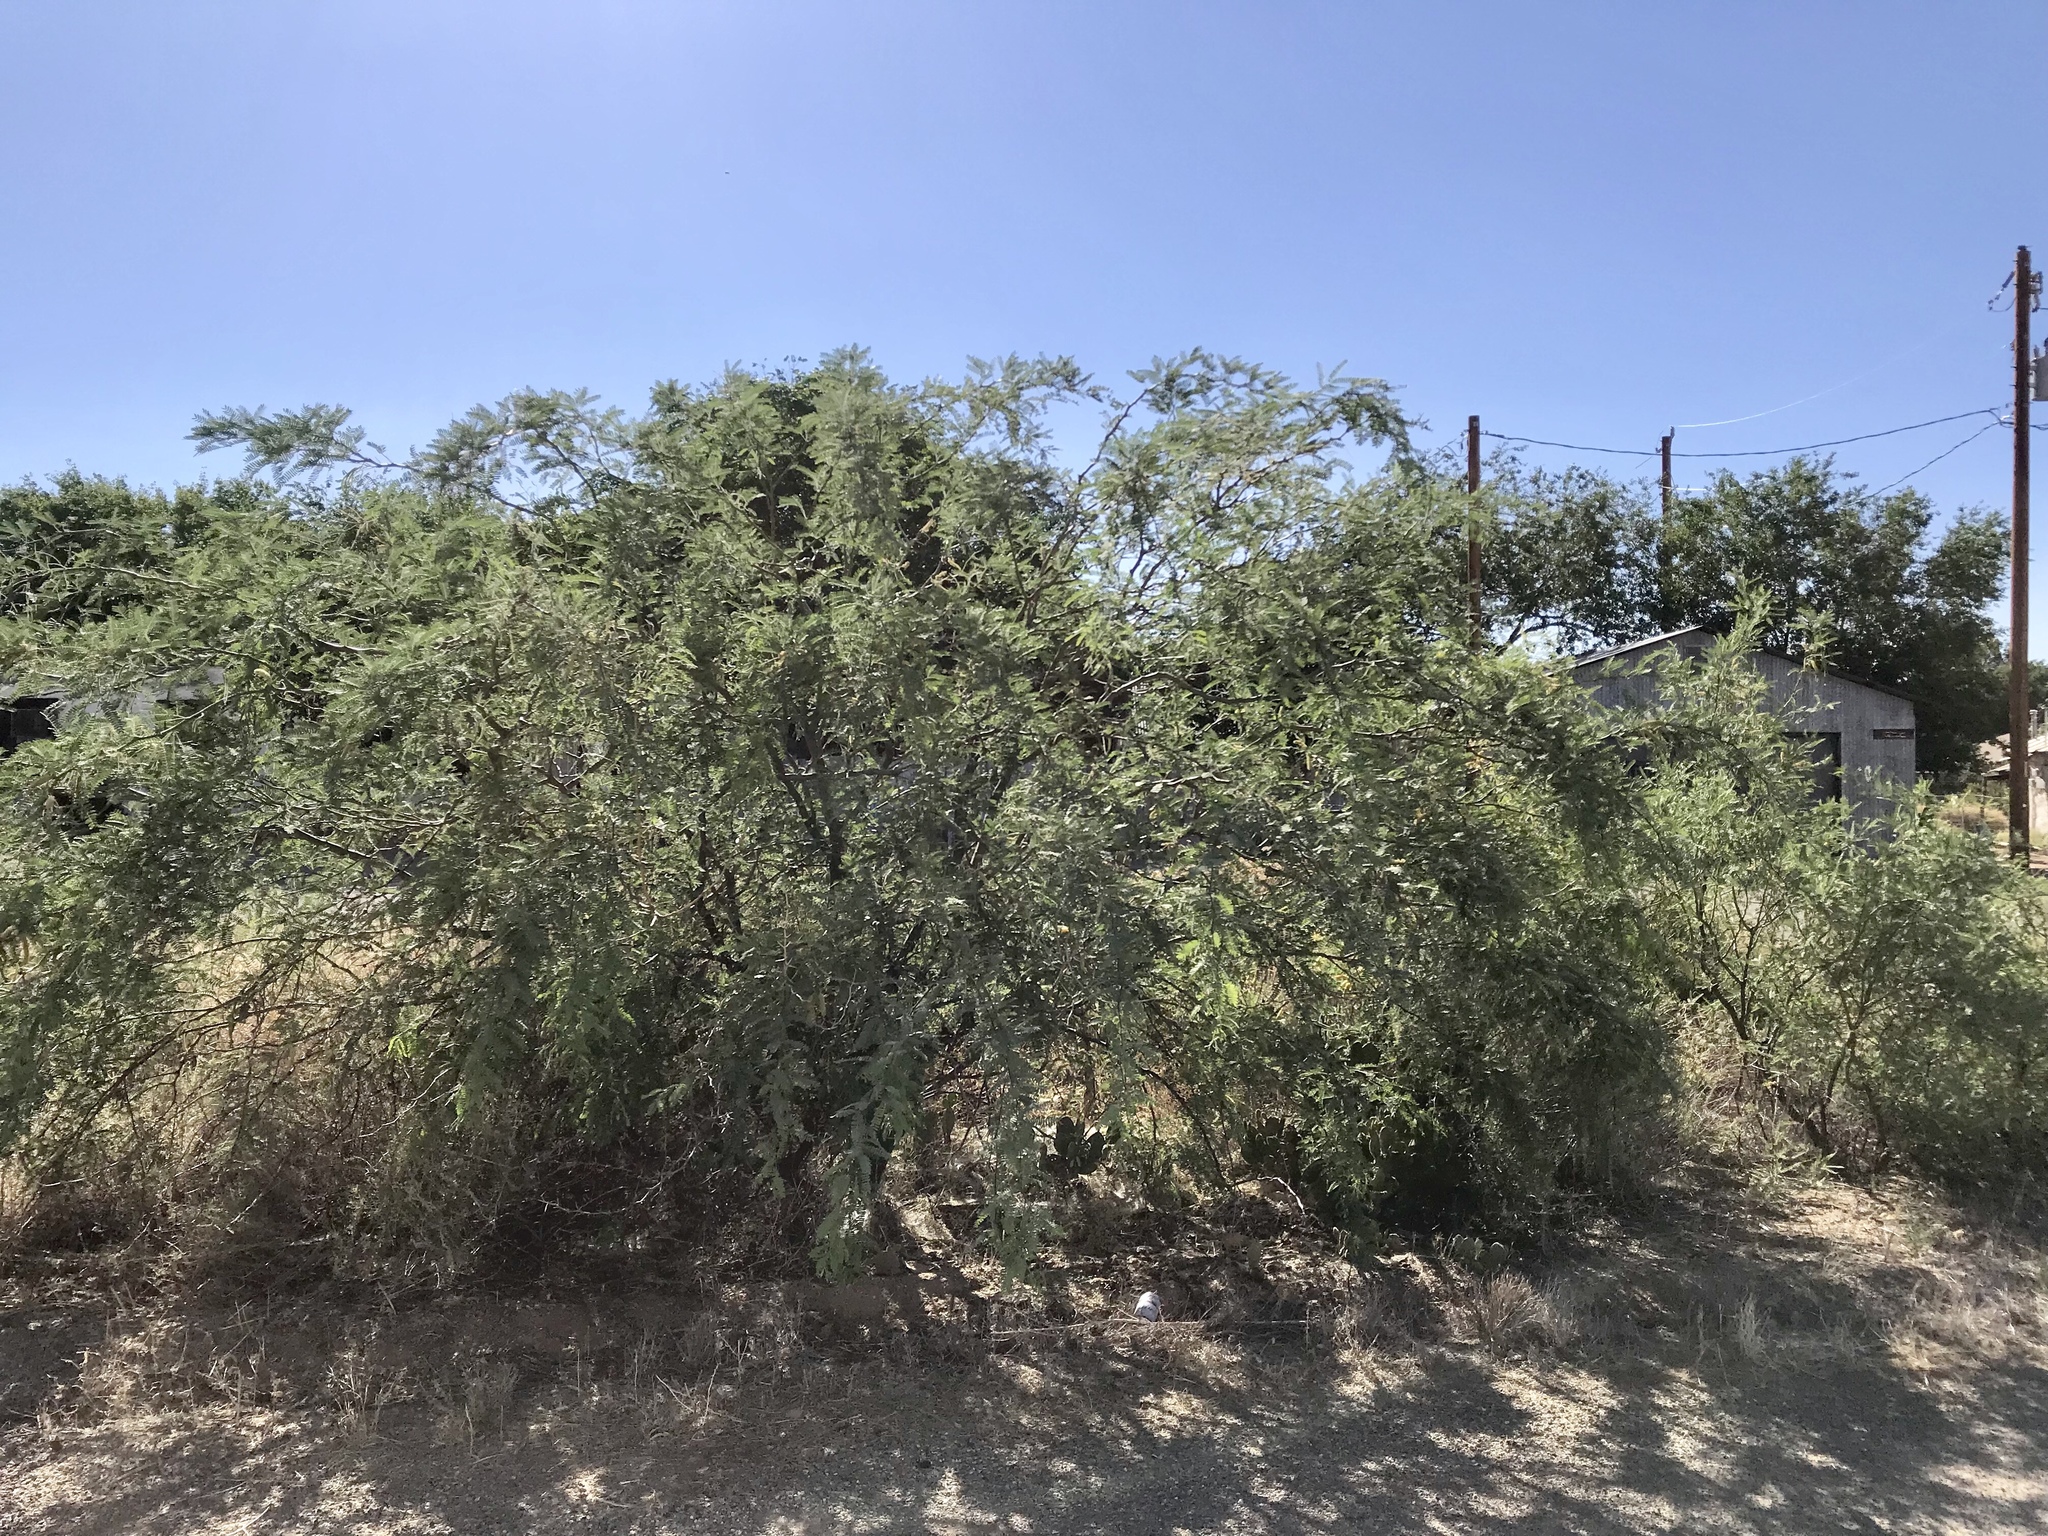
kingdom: Plantae
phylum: Tracheophyta
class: Magnoliopsida
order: Fabales
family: Fabaceae
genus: Prosopis
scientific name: Prosopis velutina
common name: Velvet mesquite
